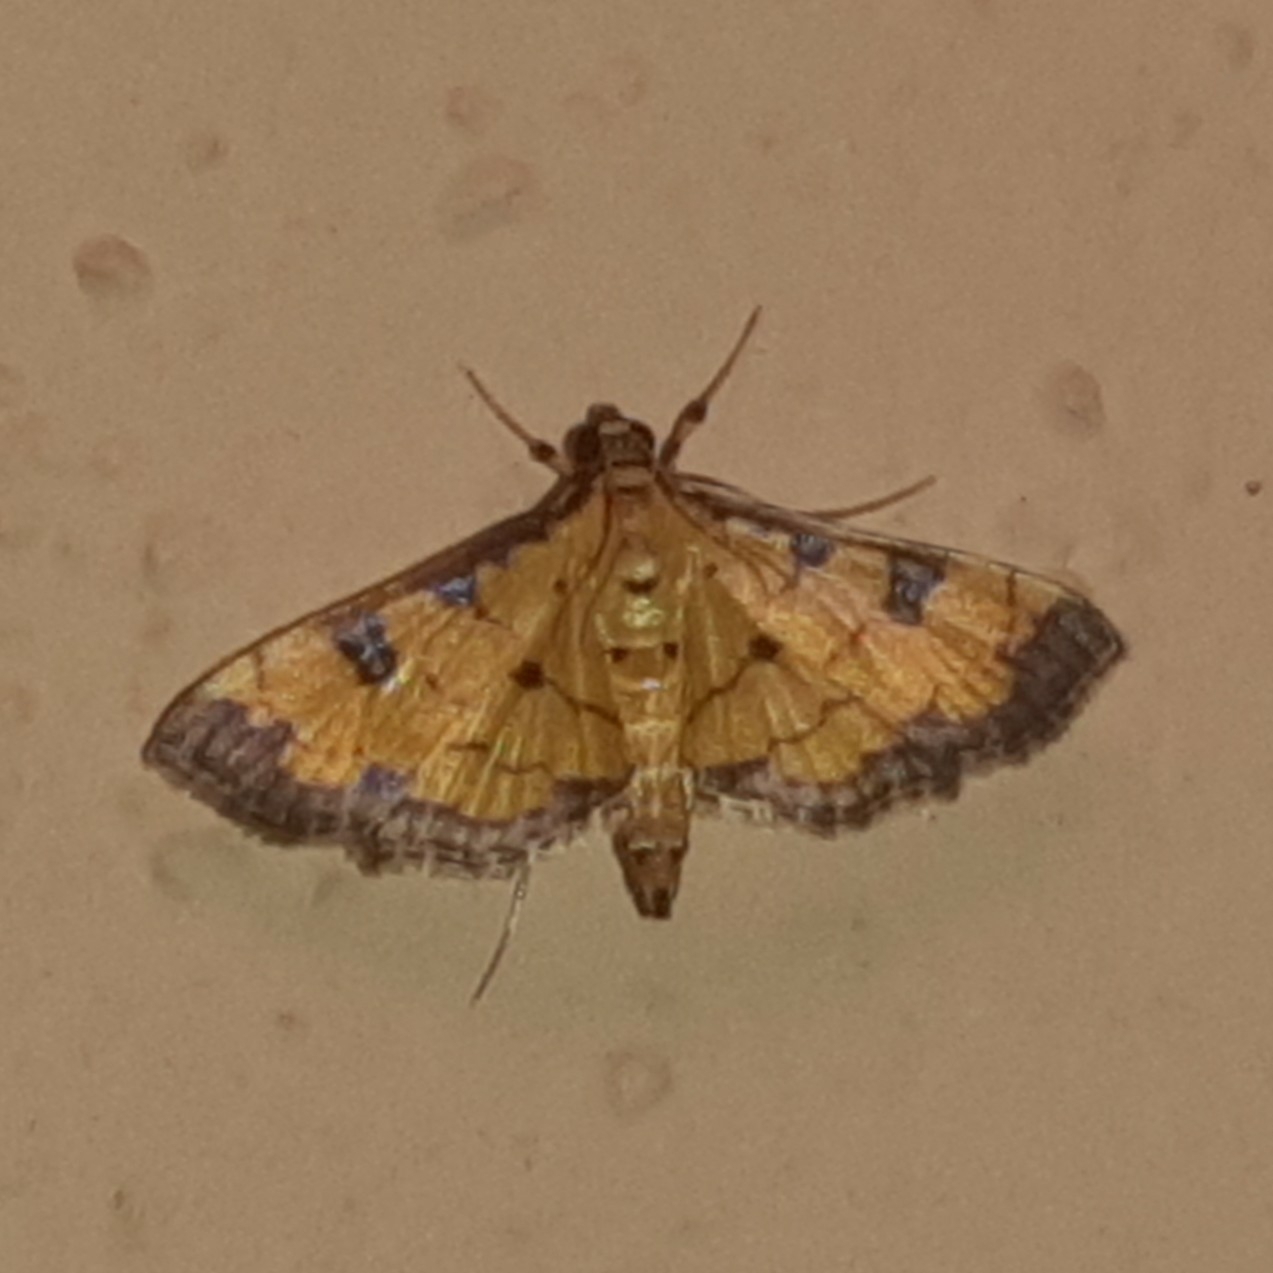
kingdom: Animalia
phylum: Arthropoda
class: Insecta
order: Lepidoptera
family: Crambidae
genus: Ategumia
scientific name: Ategumia ebulealis
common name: Moth
